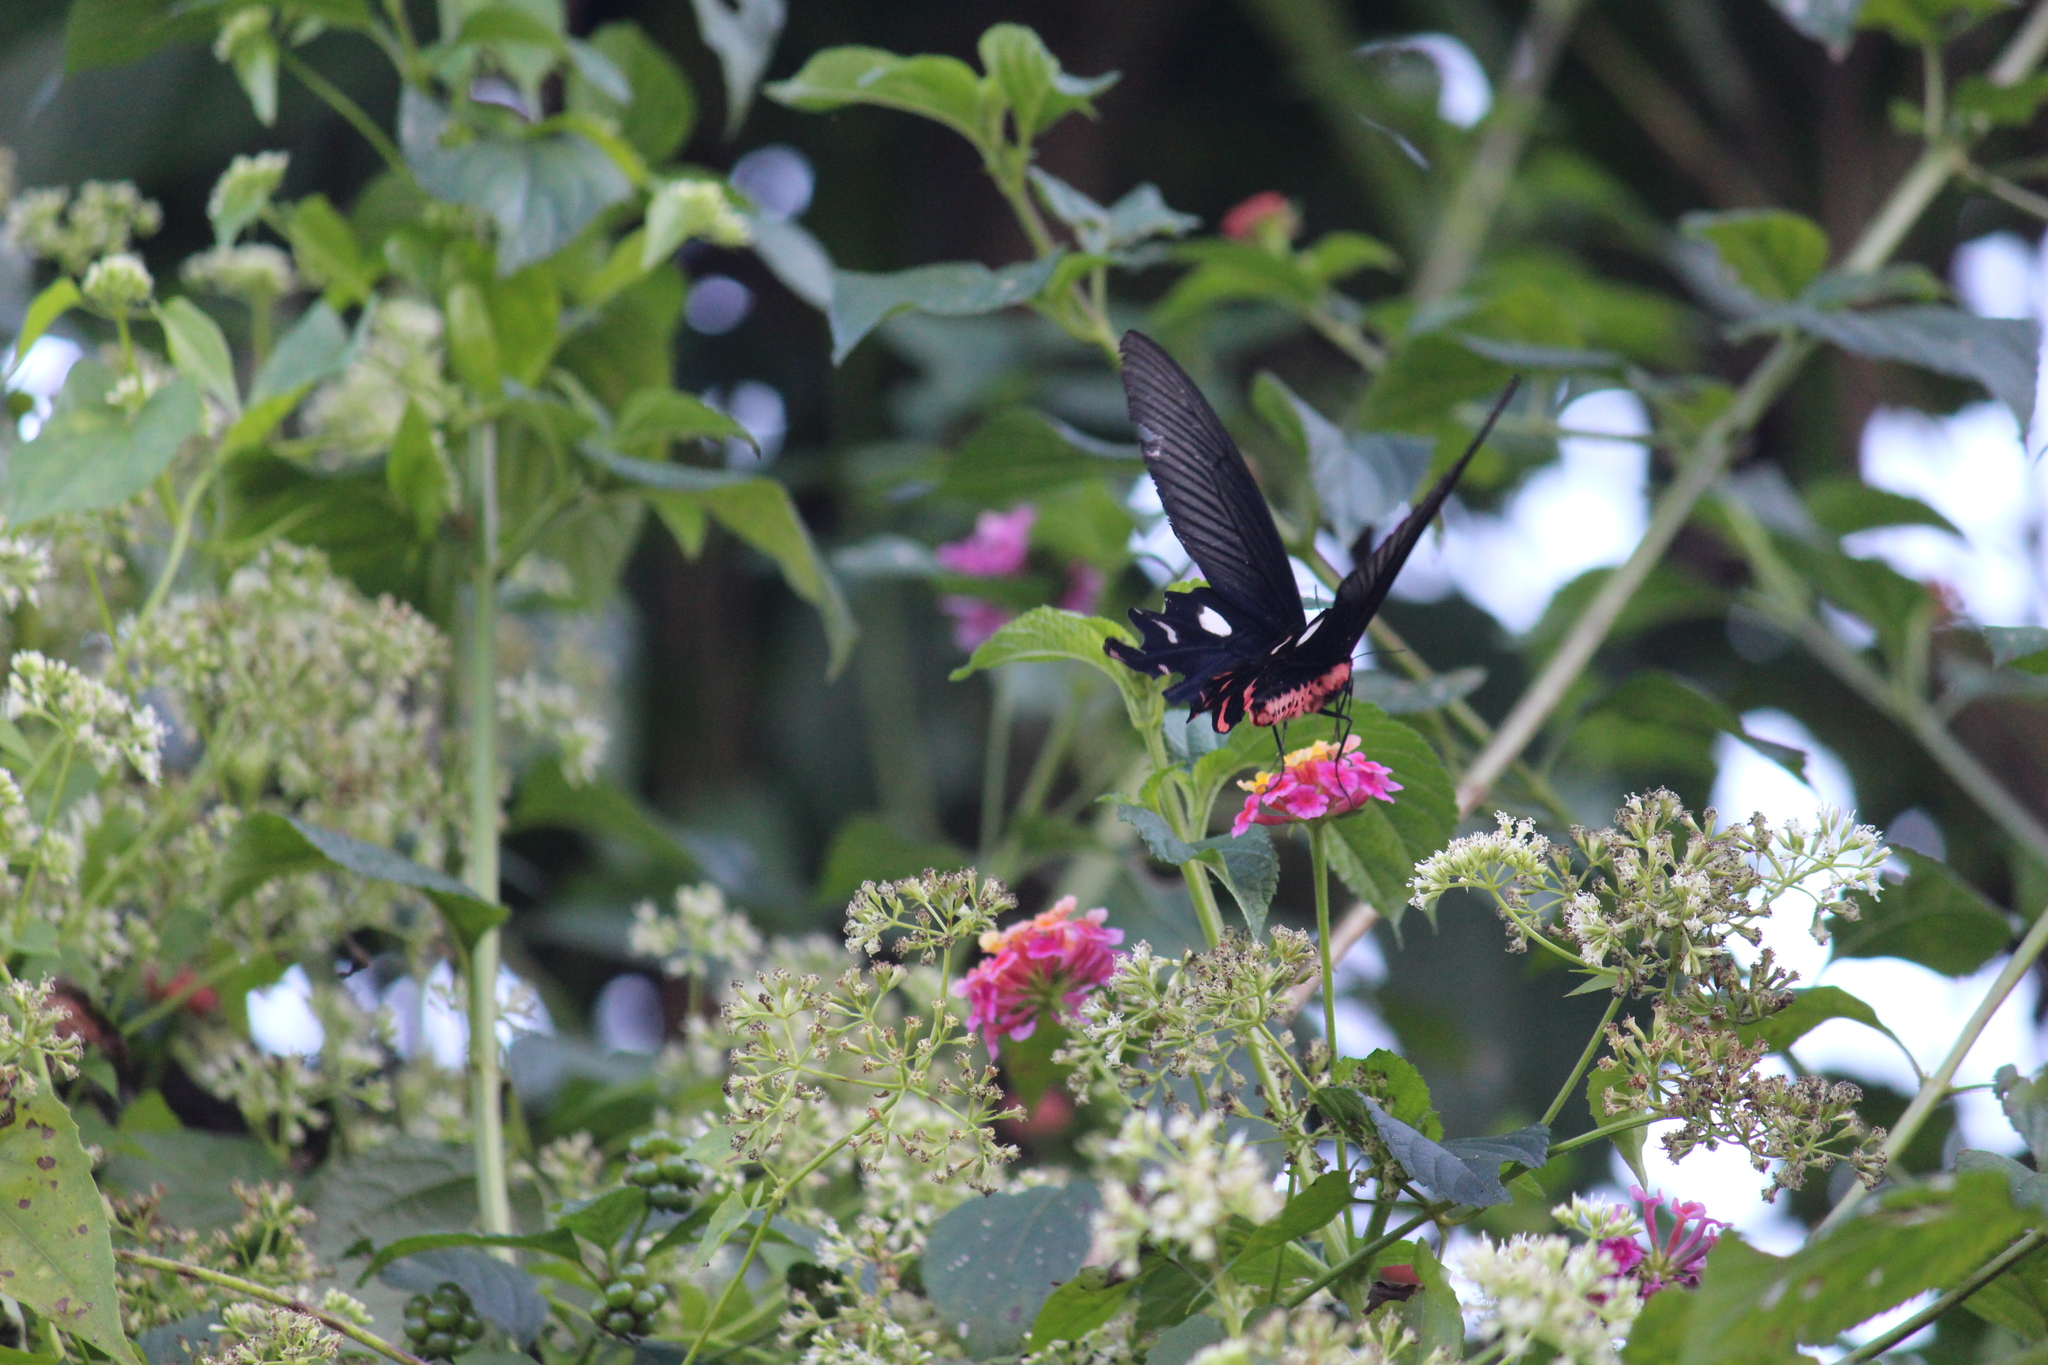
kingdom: Animalia
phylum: Arthropoda
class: Insecta
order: Lepidoptera
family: Papilionidae
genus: Byasa
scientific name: Byasa polyeuctes
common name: Common windmill
